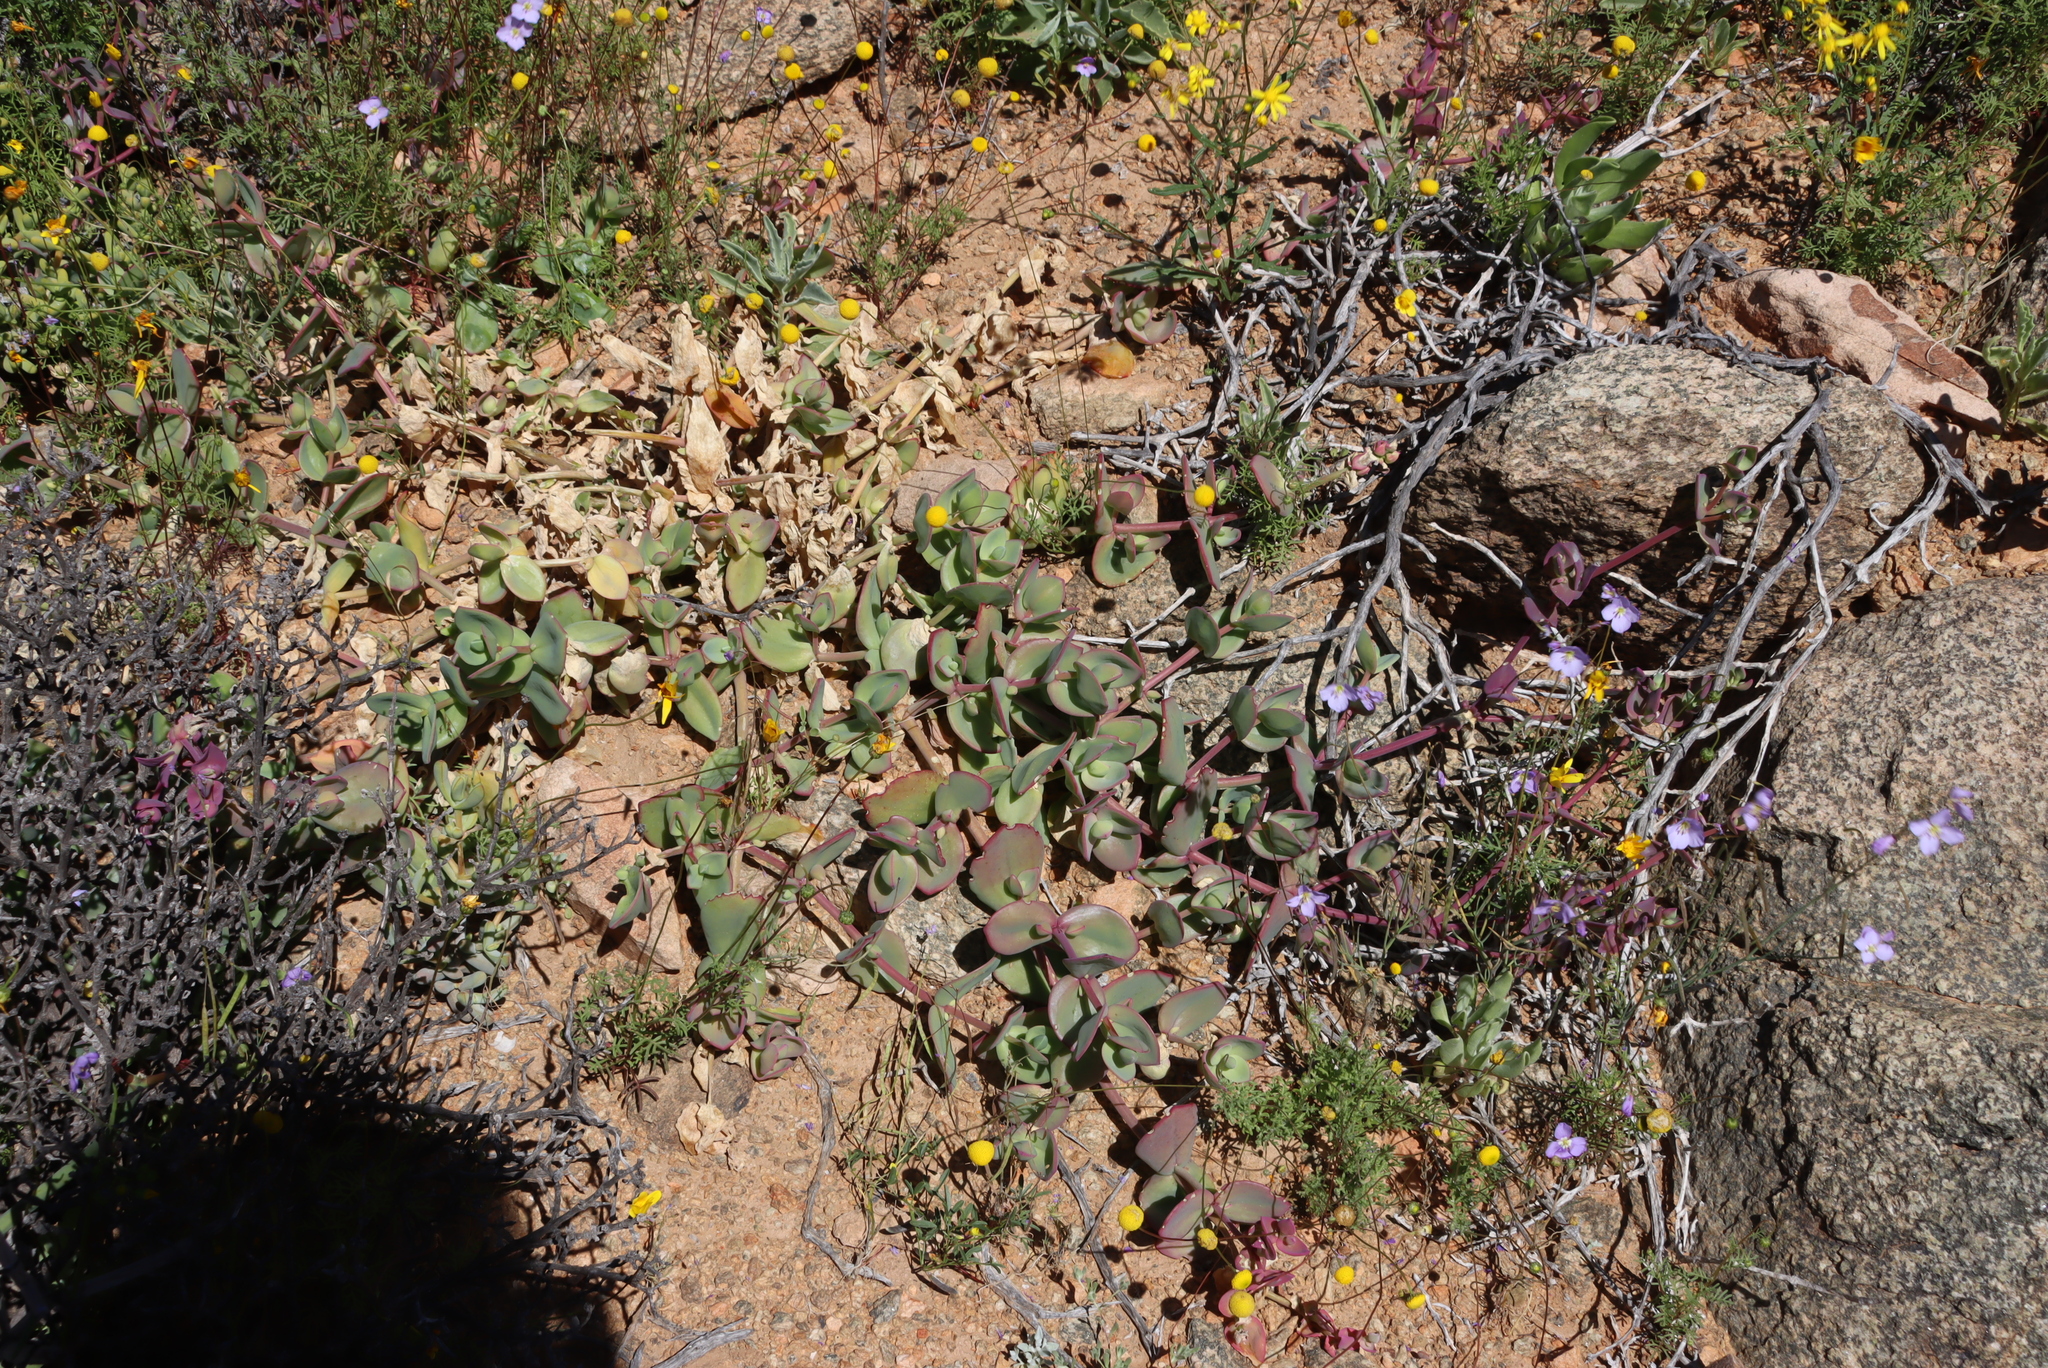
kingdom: Plantae
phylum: Tracheophyta
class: Magnoliopsida
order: Caryophyllales
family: Aizoaceae
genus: Mesembryanthemum
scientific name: Mesembryanthemum sladenianum
